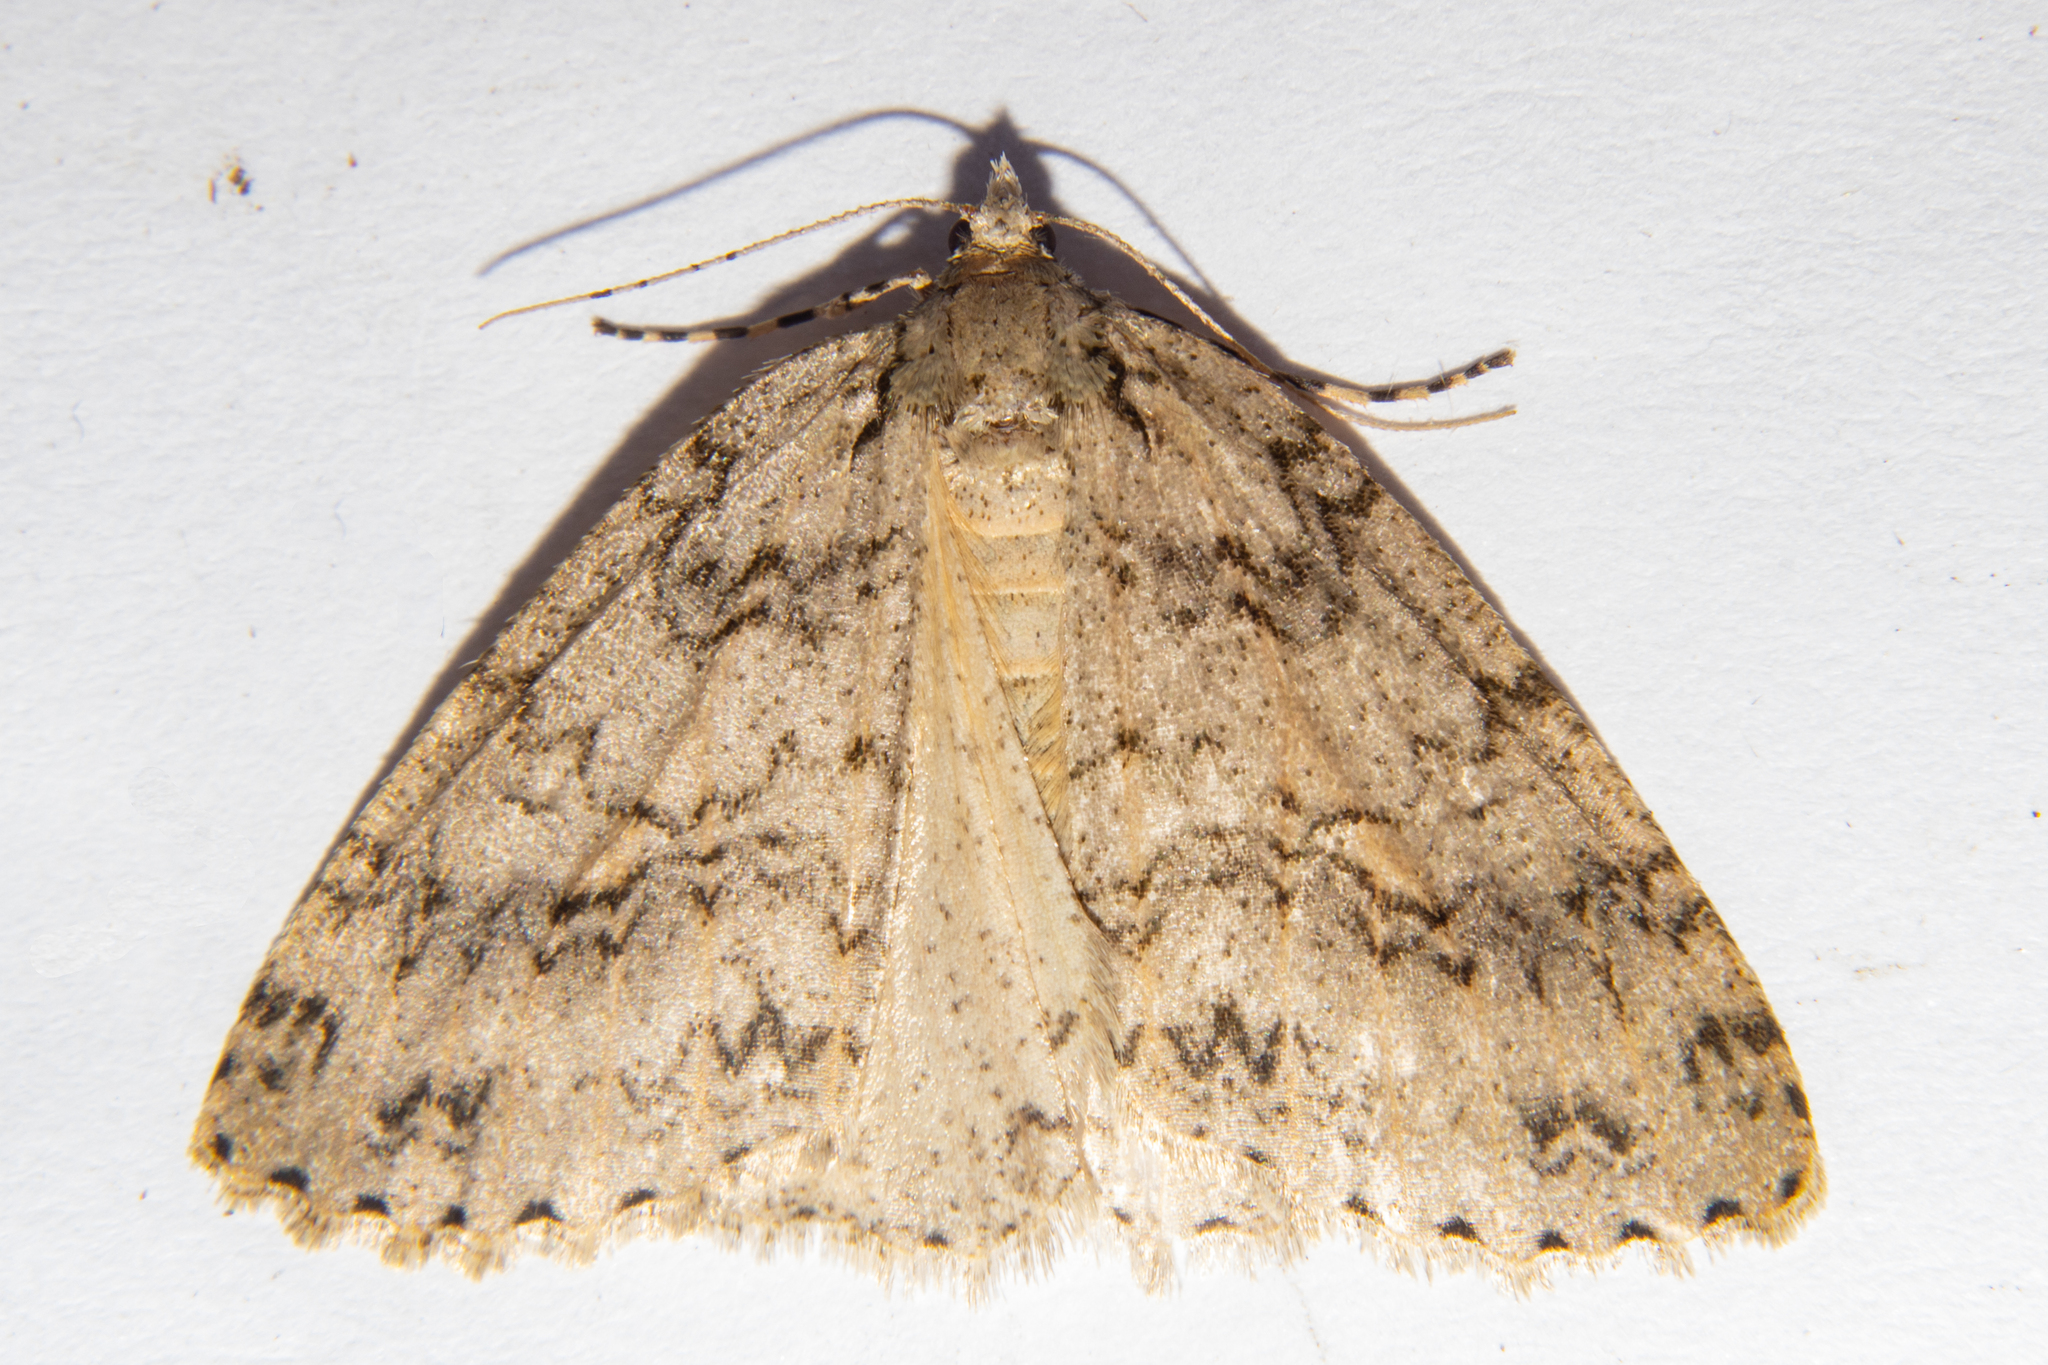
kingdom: Animalia
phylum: Arthropoda
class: Insecta
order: Lepidoptera
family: Geometridae
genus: Pseudocoremia
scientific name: Pseudocoremia rudisata
